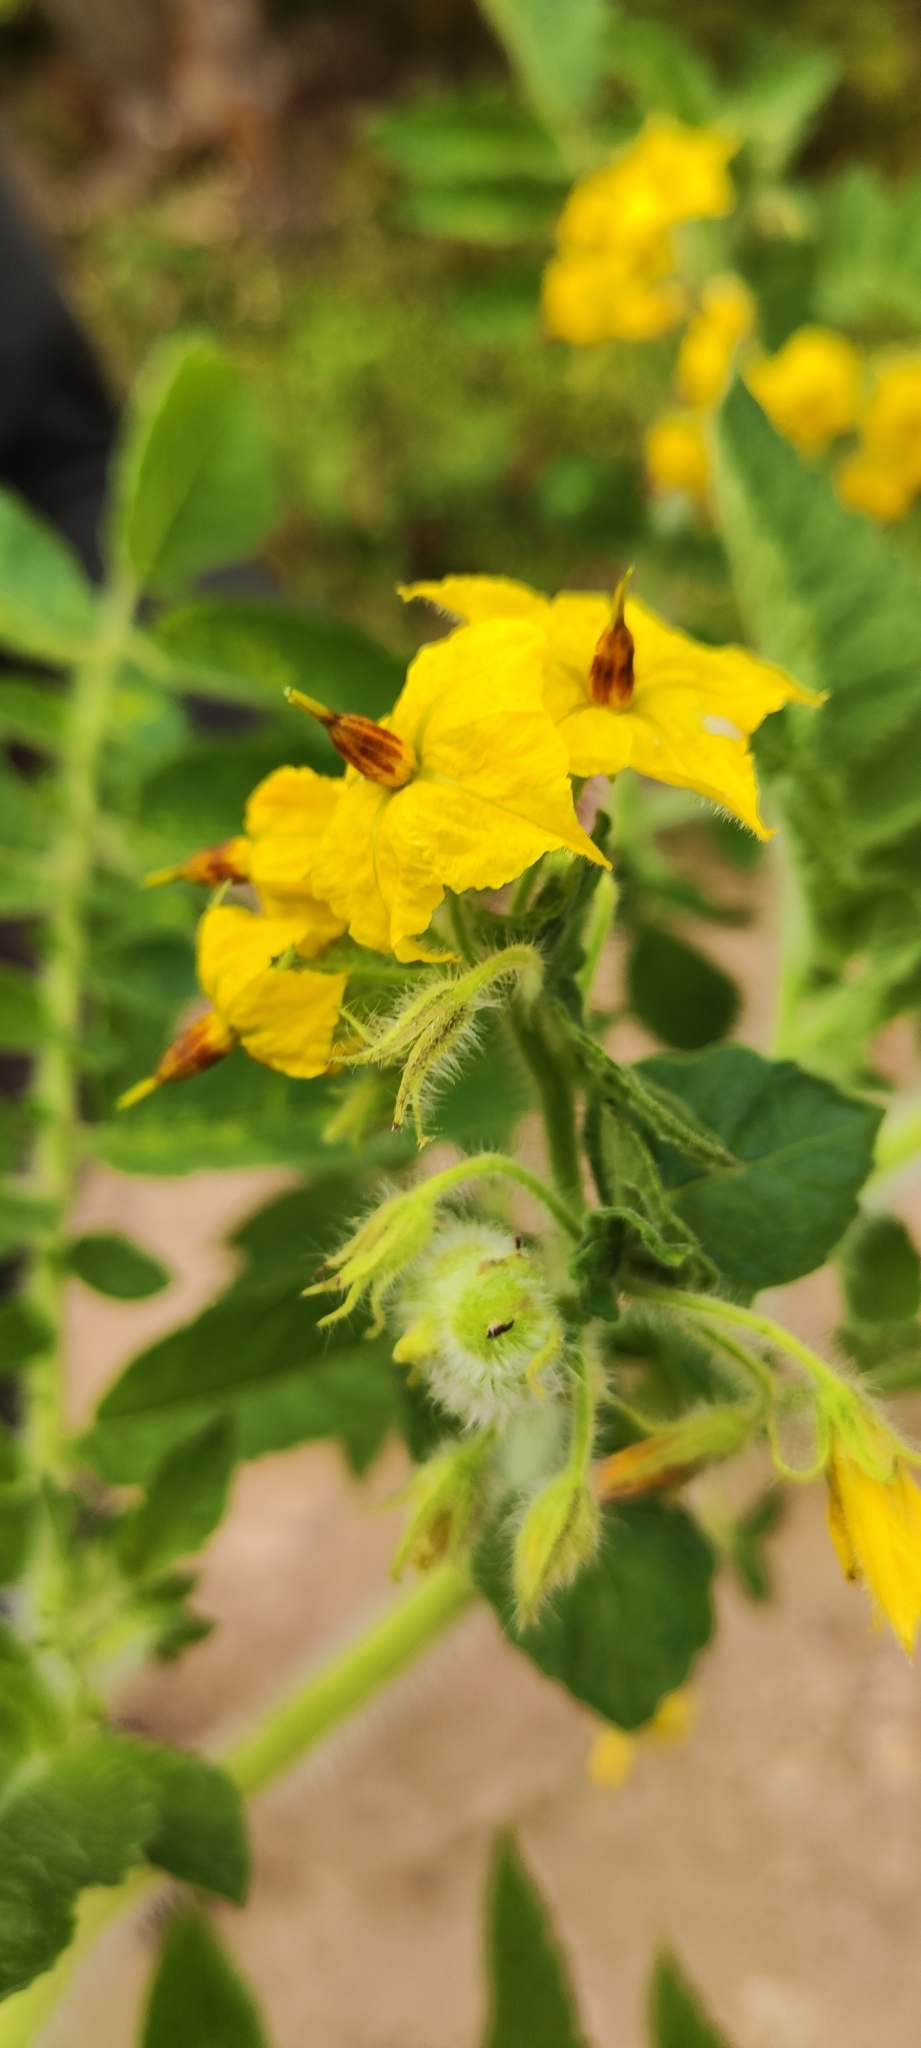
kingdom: Plantae
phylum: Tracheophyta
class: Magnoliopsida
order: Solanales
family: Solanaceae
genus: Solanum
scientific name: Solanum habrochaites
